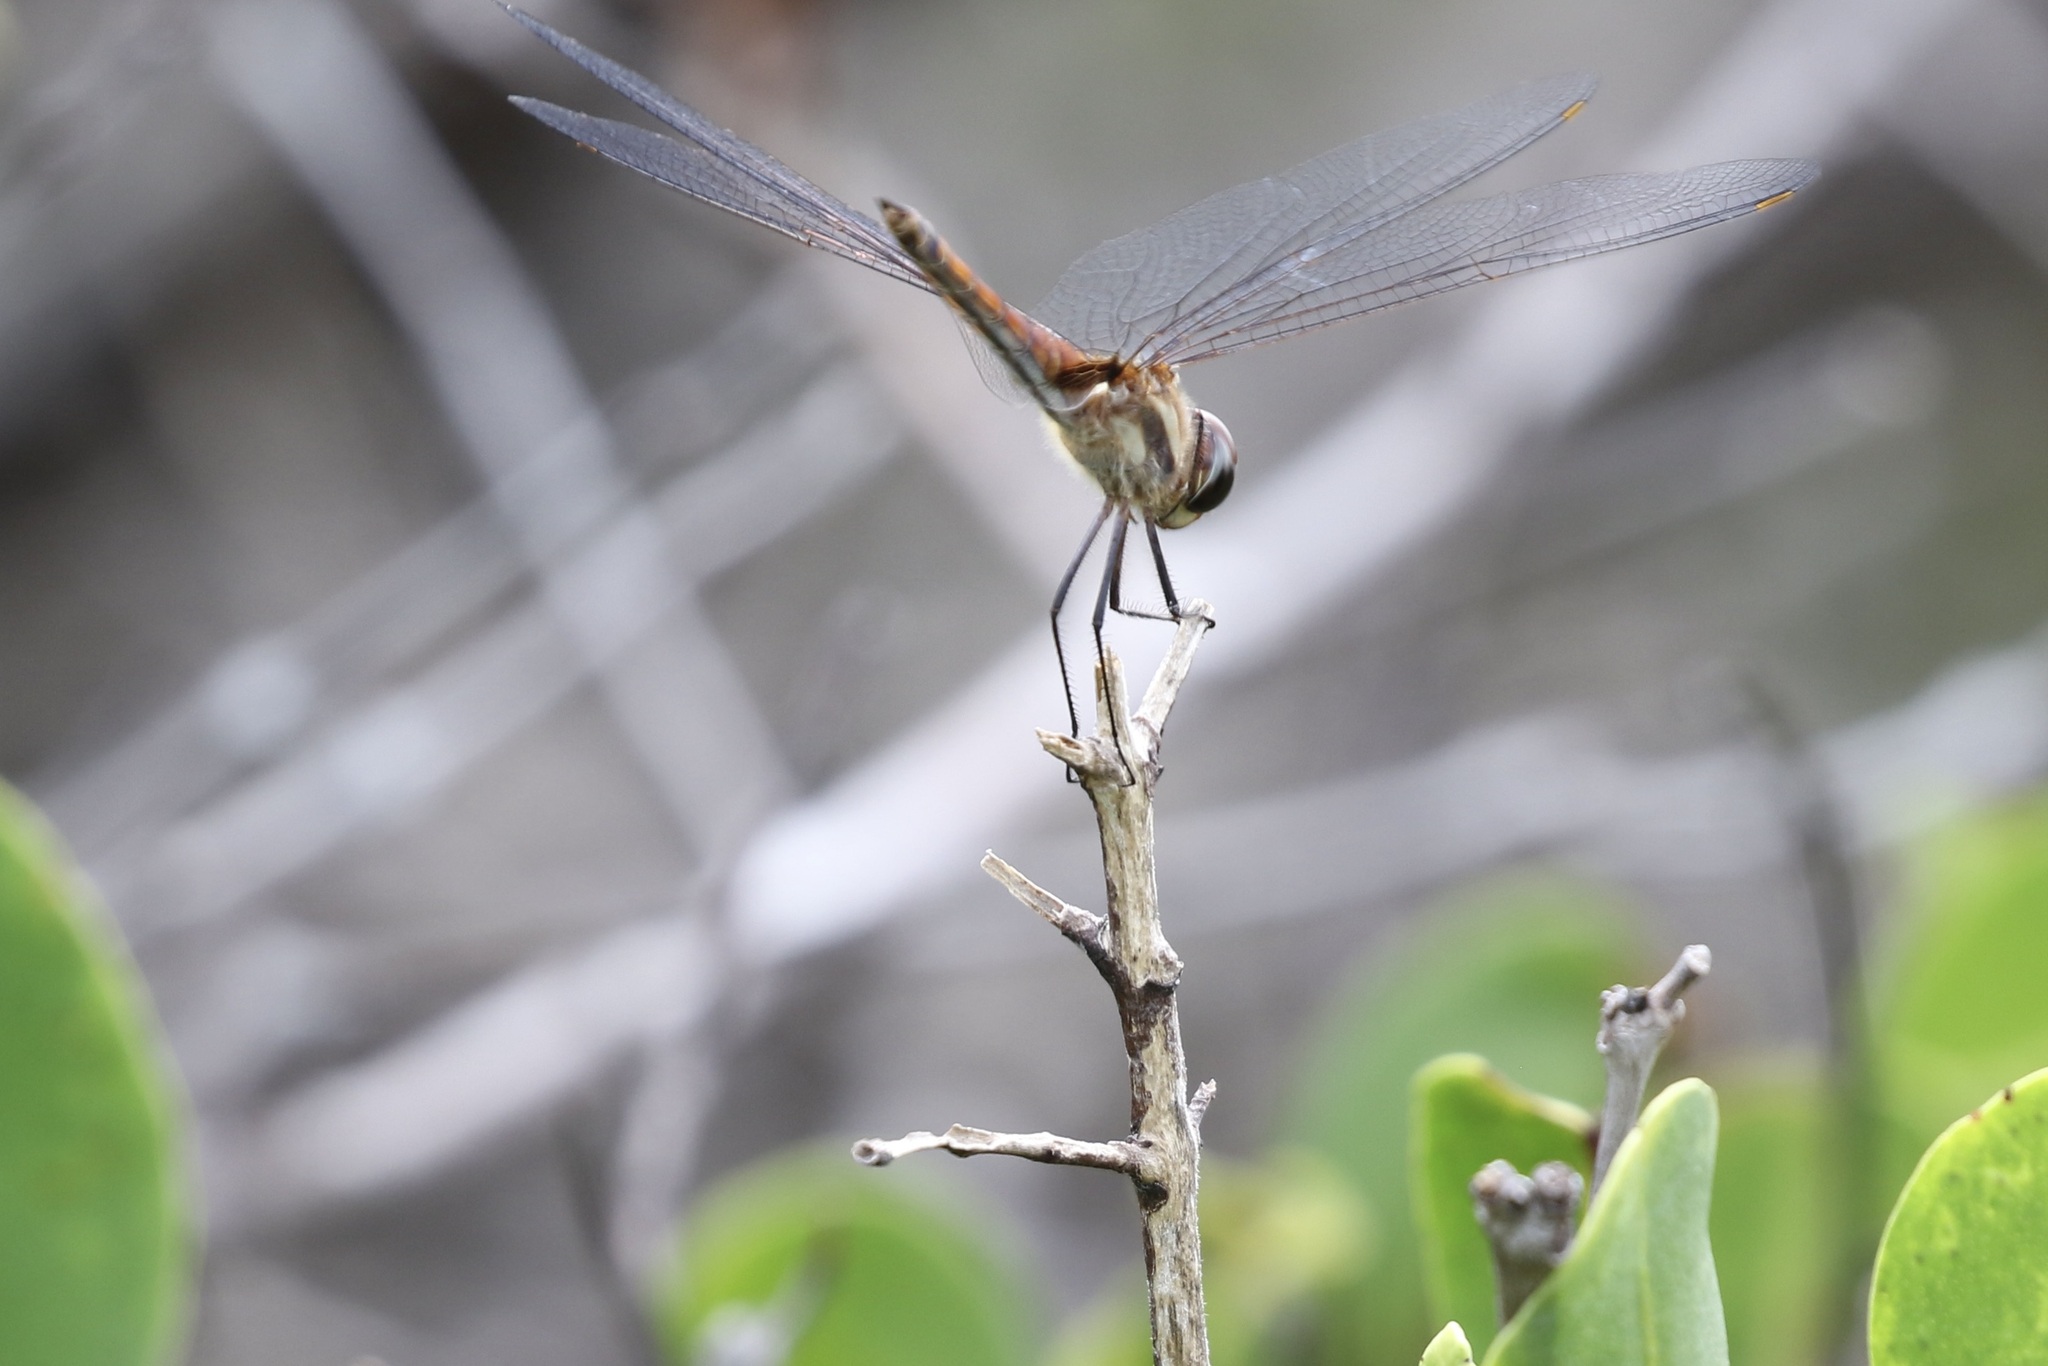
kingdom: Animalia
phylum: Arthropoda
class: Insecta
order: Odonata
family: Libellulidae
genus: Tramea
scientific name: Tramea darwini
